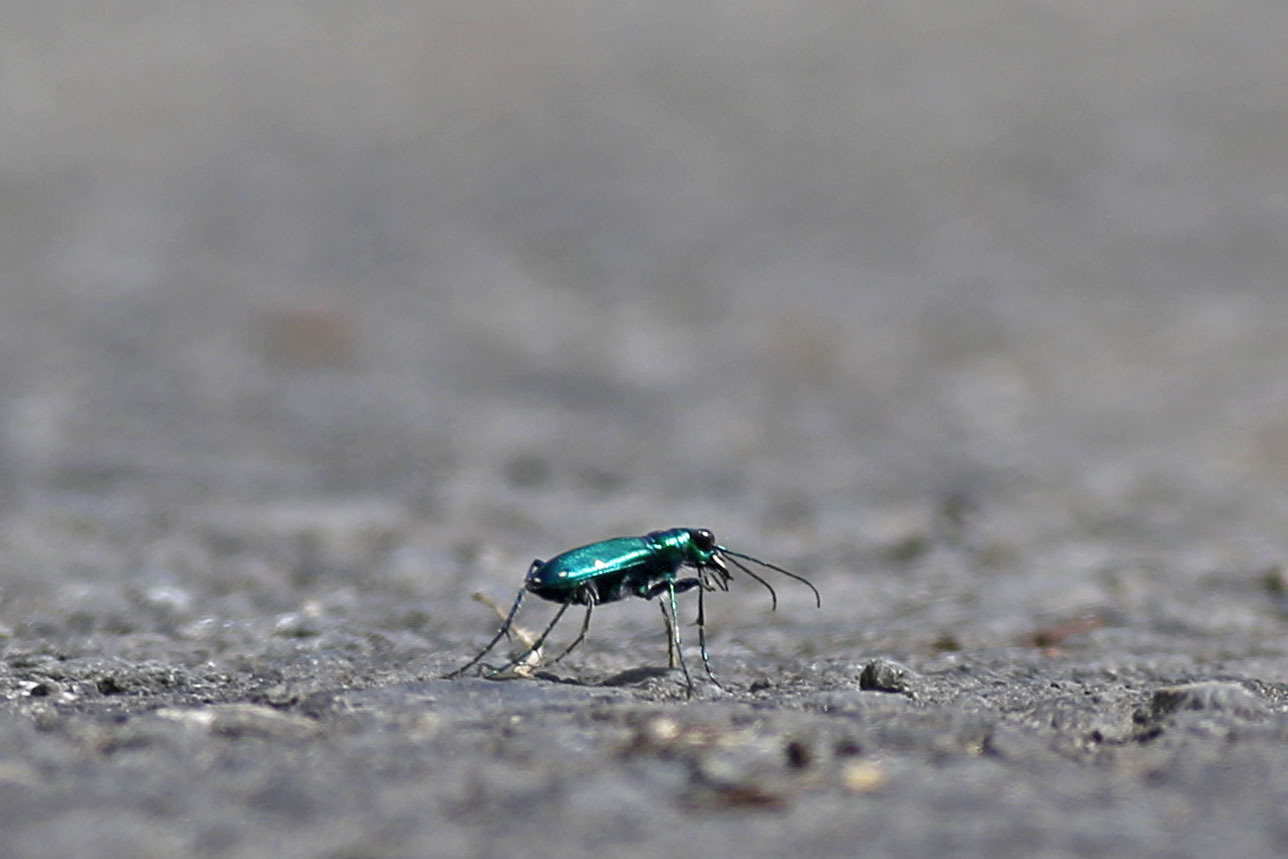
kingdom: Animalia
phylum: Arthropoda
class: Insecta
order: Coleoptera
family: Carabidae
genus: Cicindela
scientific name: Cicindela sexguttata
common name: Six-spotted tiger beetle
